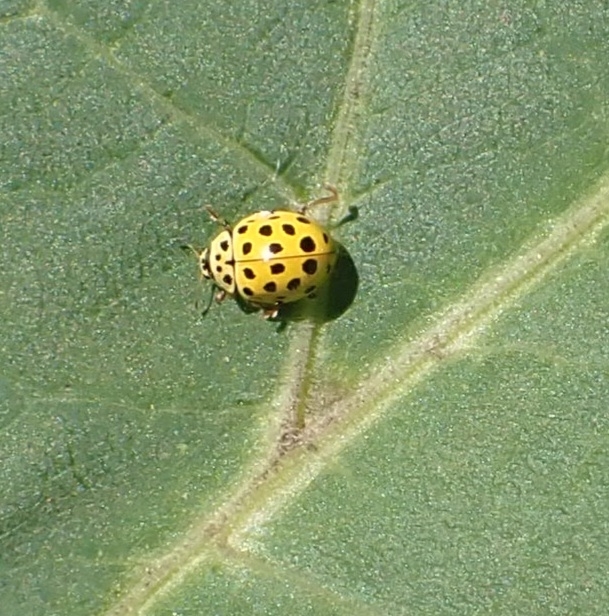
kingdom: Animalia
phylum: Arthropoda
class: Insecta
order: Coleoptera
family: Coccinellidae
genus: Psyllobora
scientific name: Psyllobora vigintiduopunctata
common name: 22-spot ladybird
